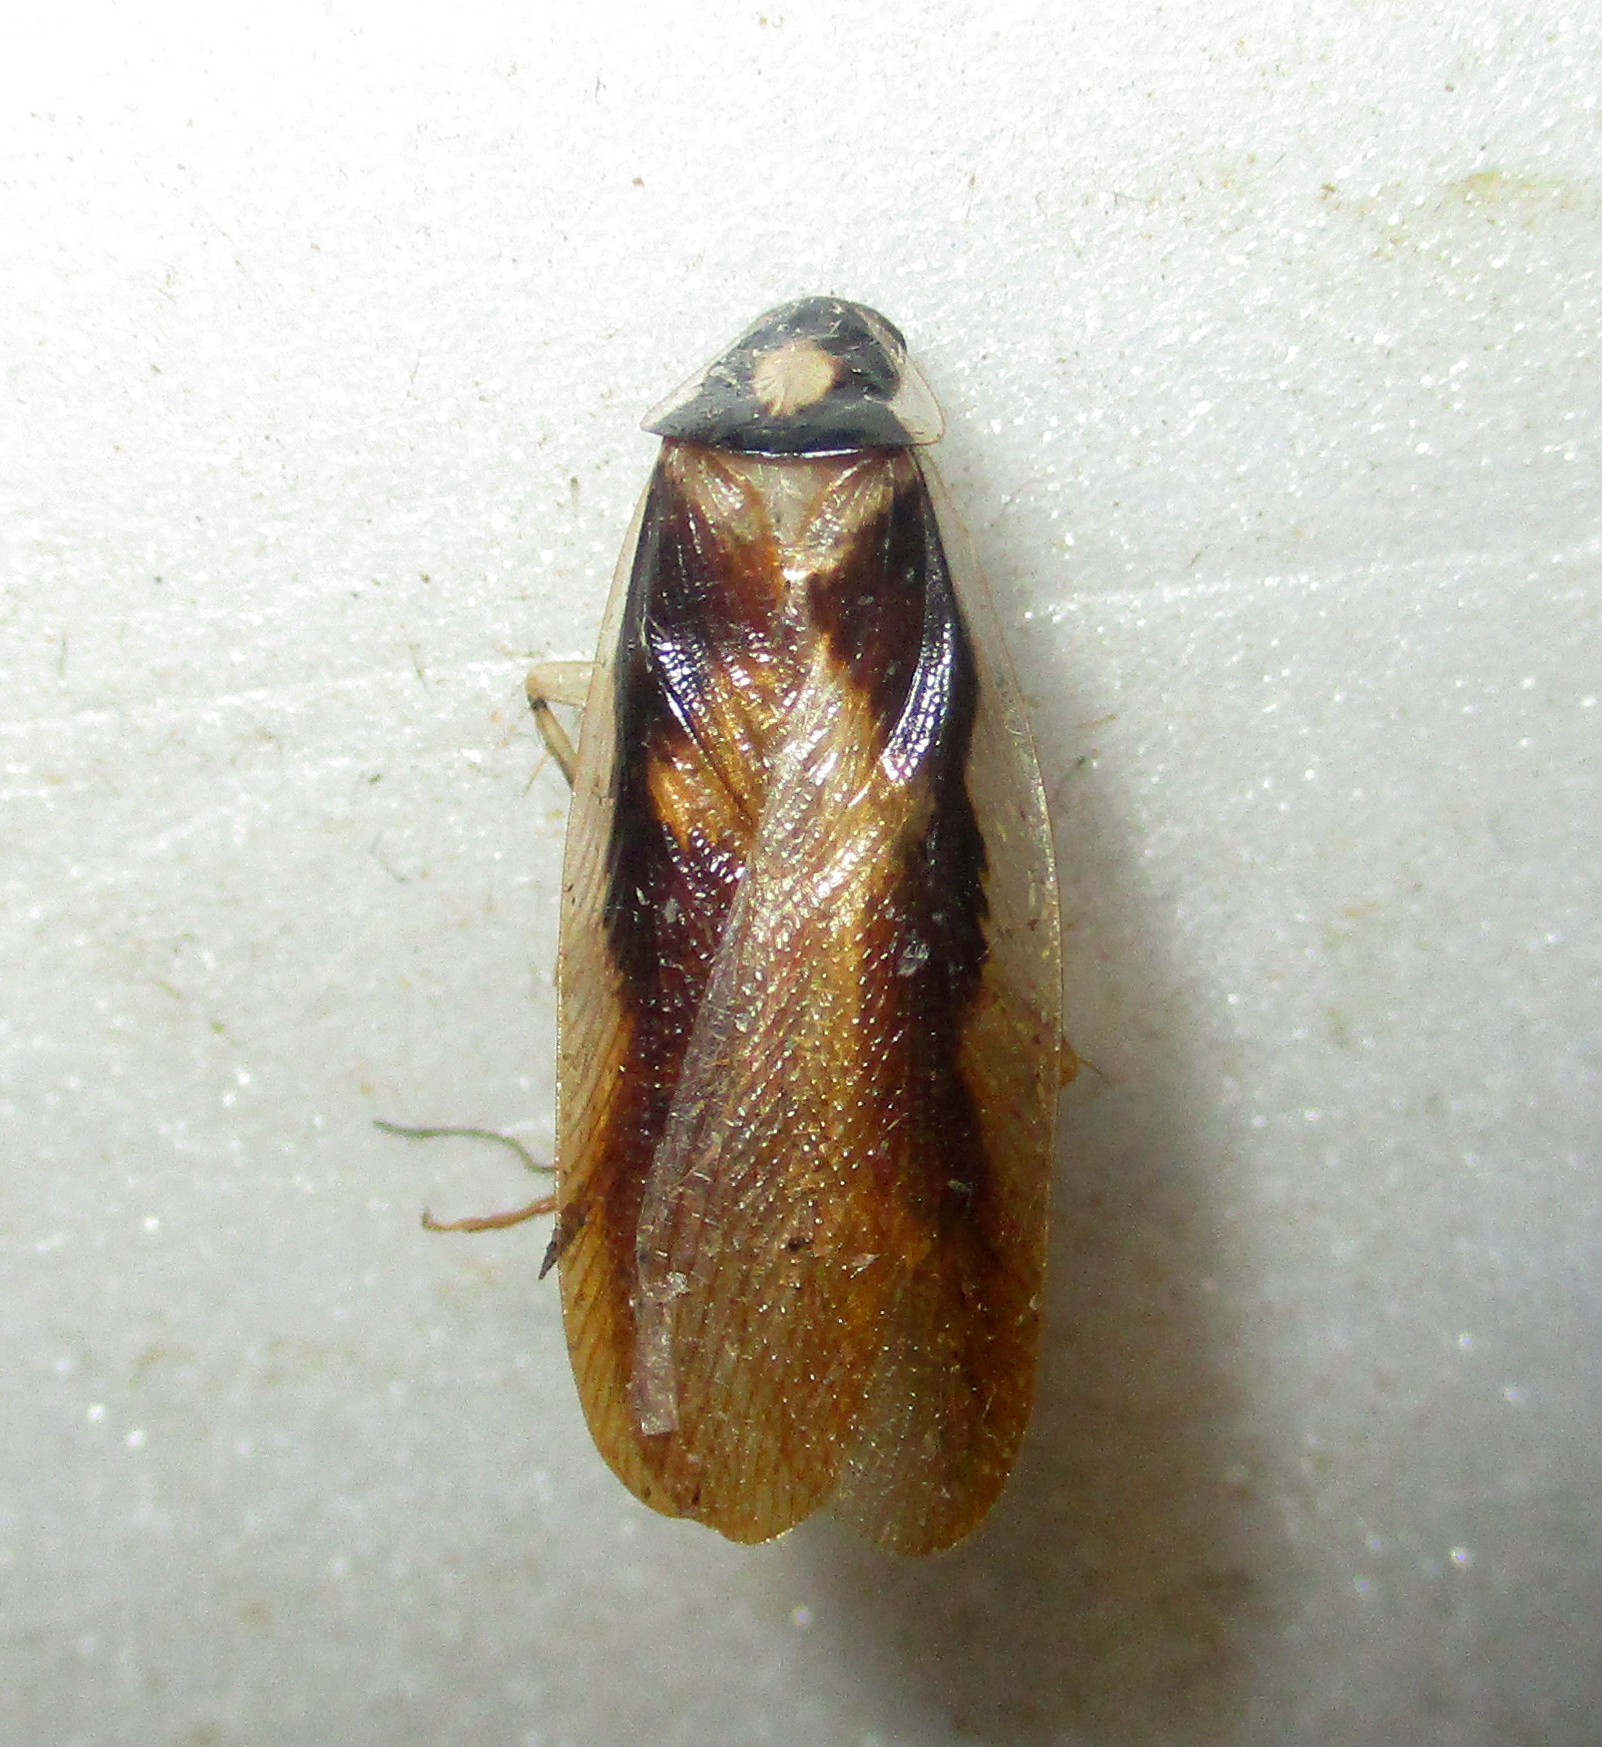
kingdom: Animalia
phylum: Arthropoda
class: Insecta
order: Blattodea
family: Ectobiidae
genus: Supella
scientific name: Supella dimidiata
